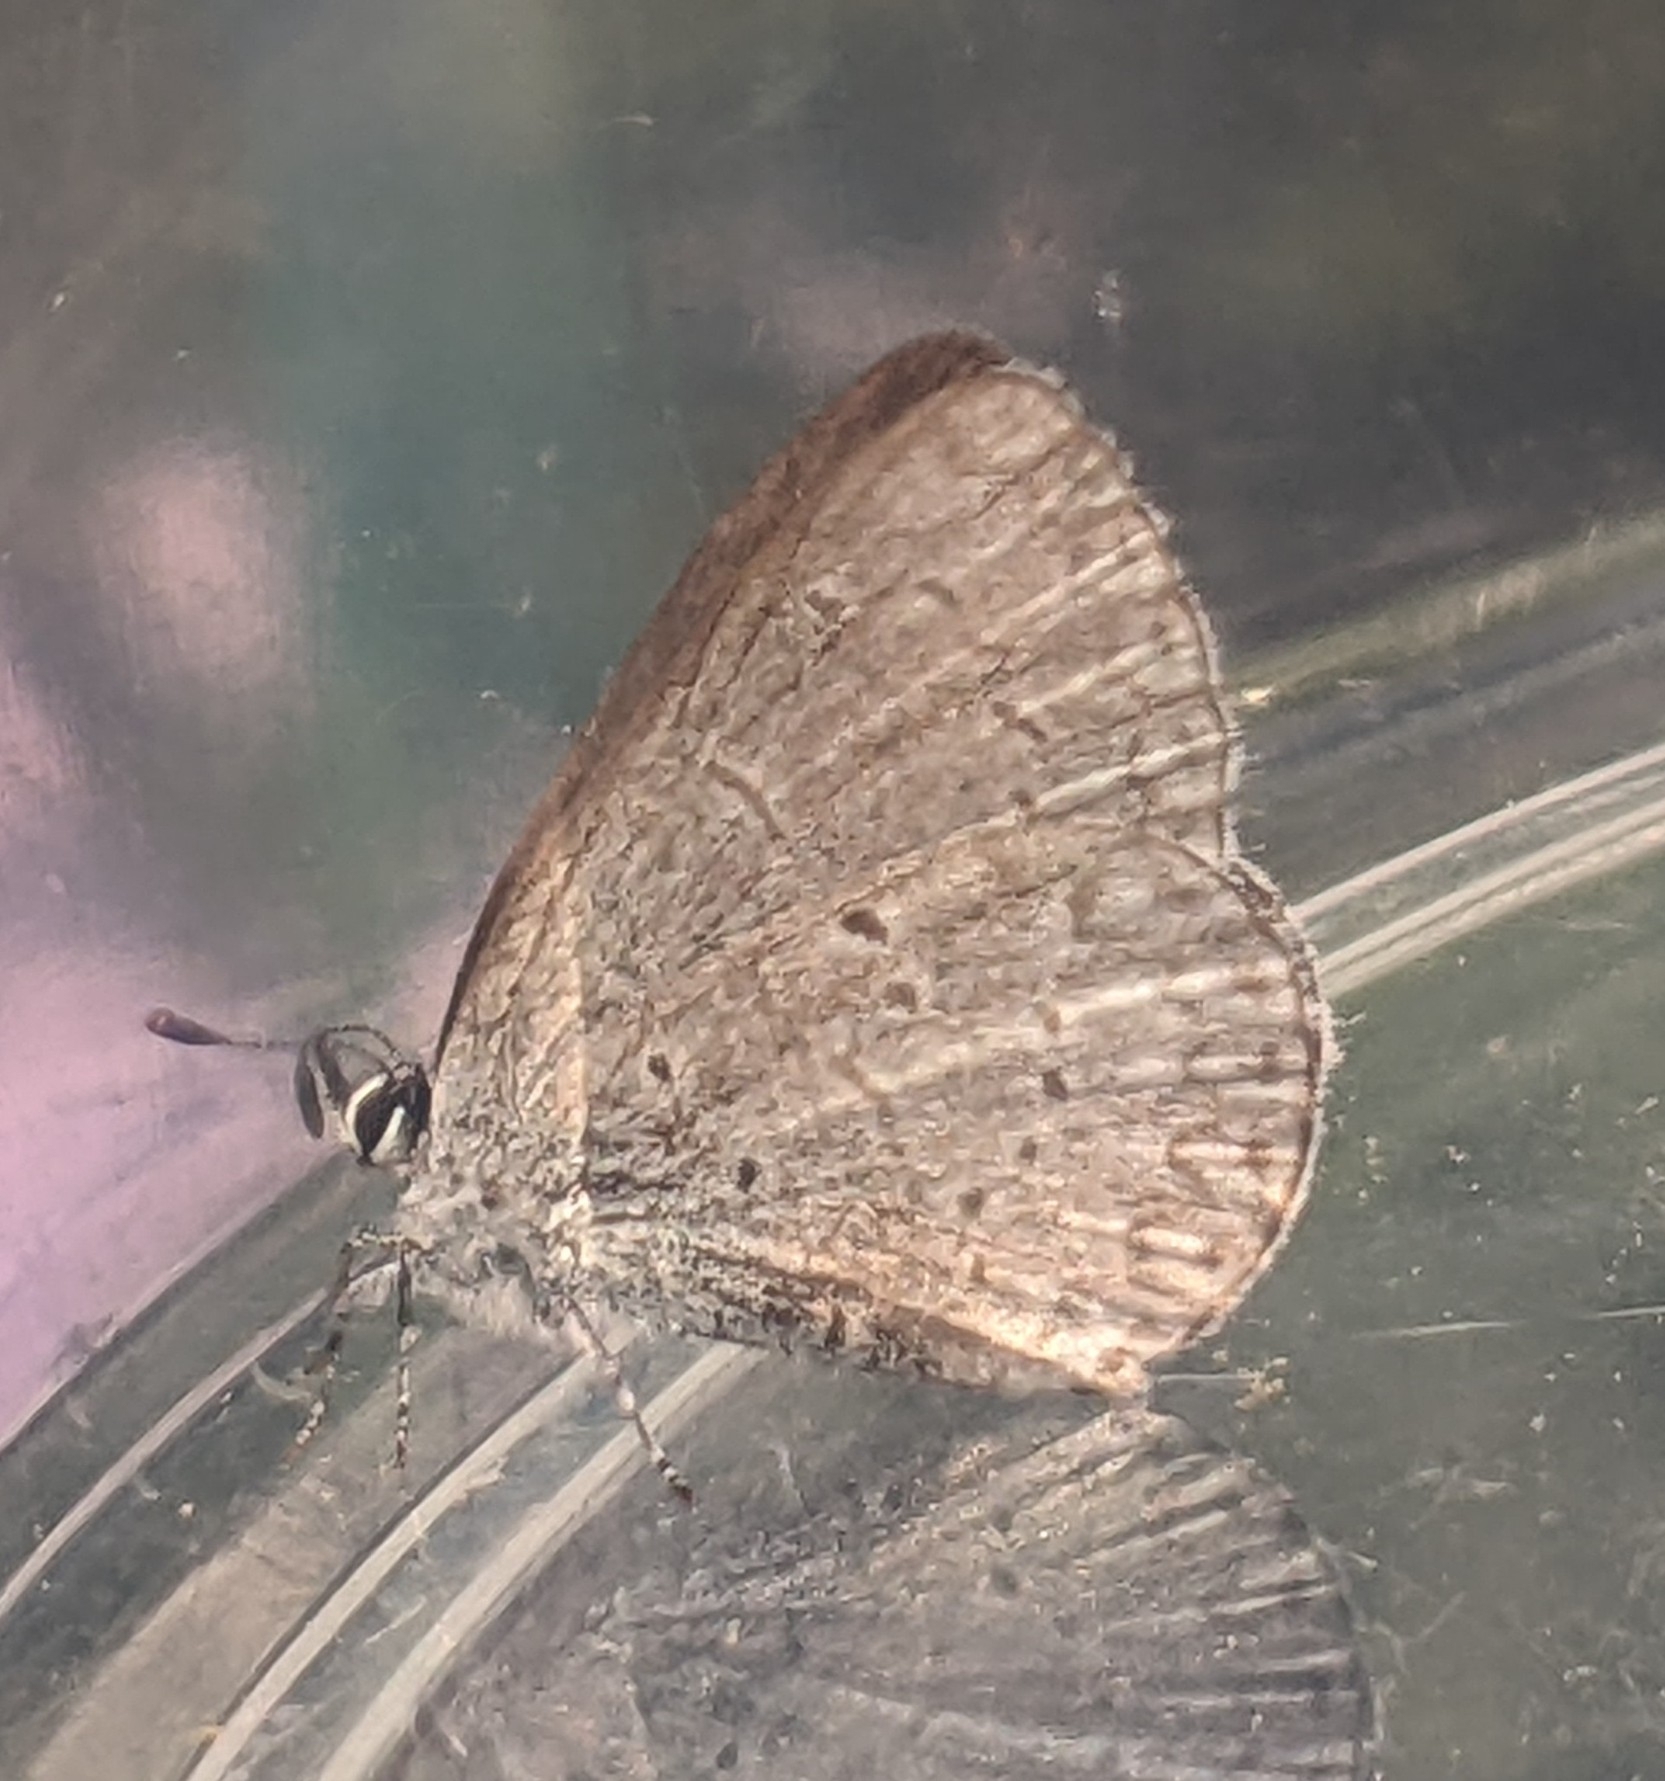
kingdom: Animalia
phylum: Arthropoda
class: Insecta
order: Lepidoptera
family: Lycaenidae
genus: Celastrina
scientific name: Celastrina ladon
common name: Spring azure
